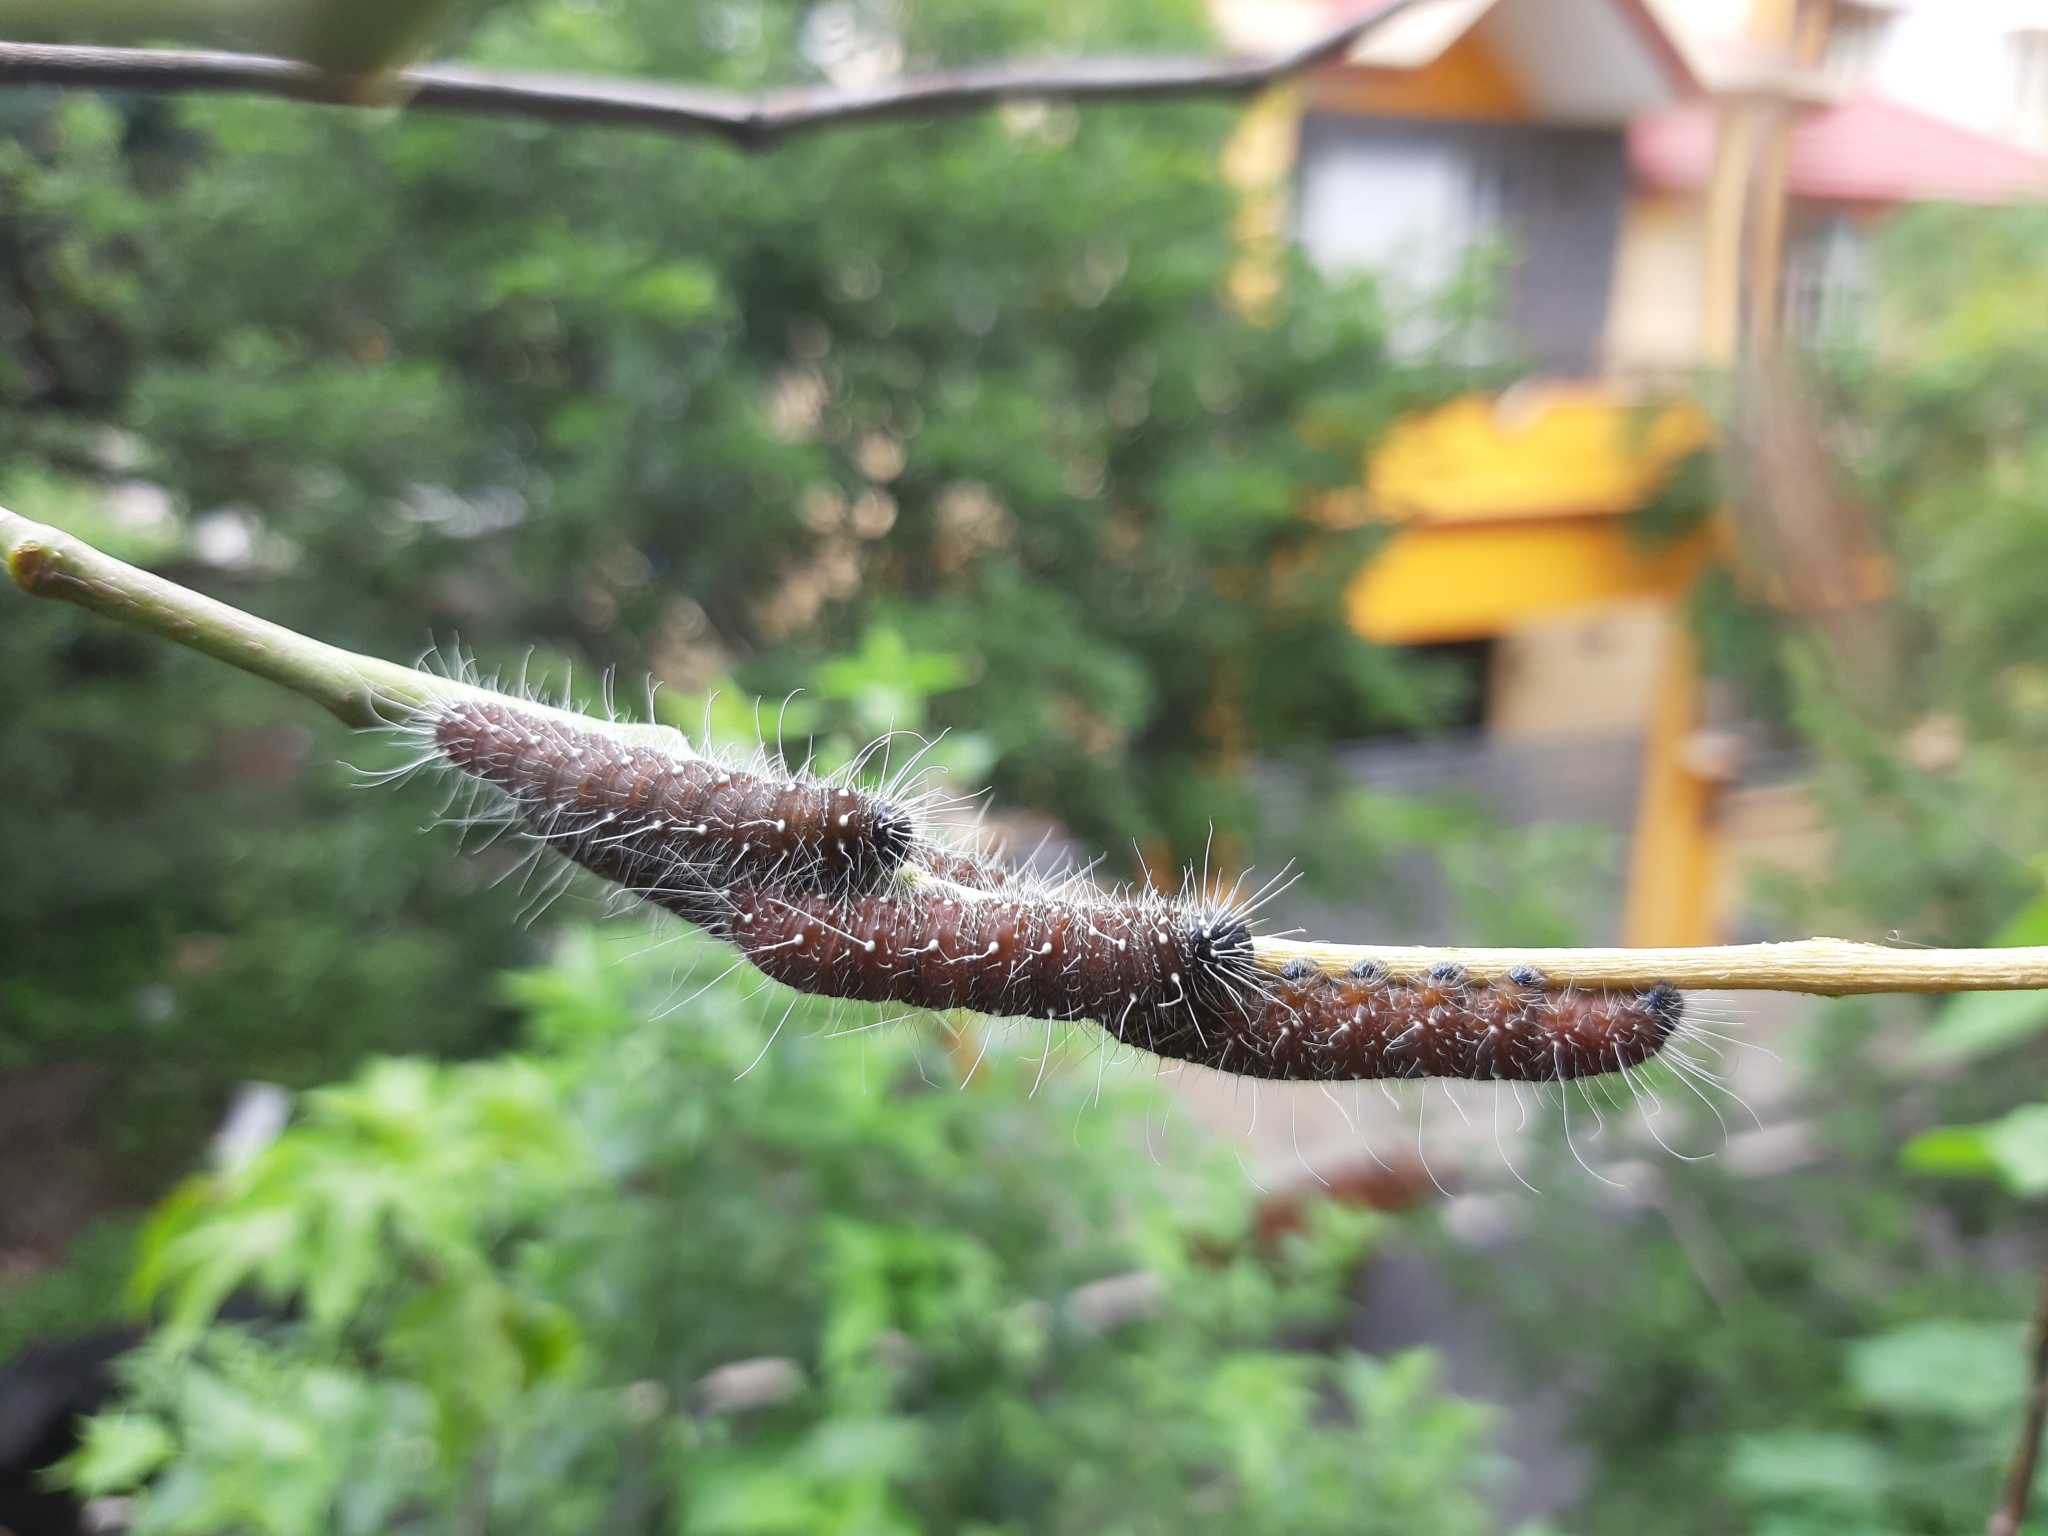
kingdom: Animalia
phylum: Arthropoda
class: Insecta
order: Lepidoptera
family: Pieridae
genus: Delias
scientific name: Delias eucharis
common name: Common jezebel
